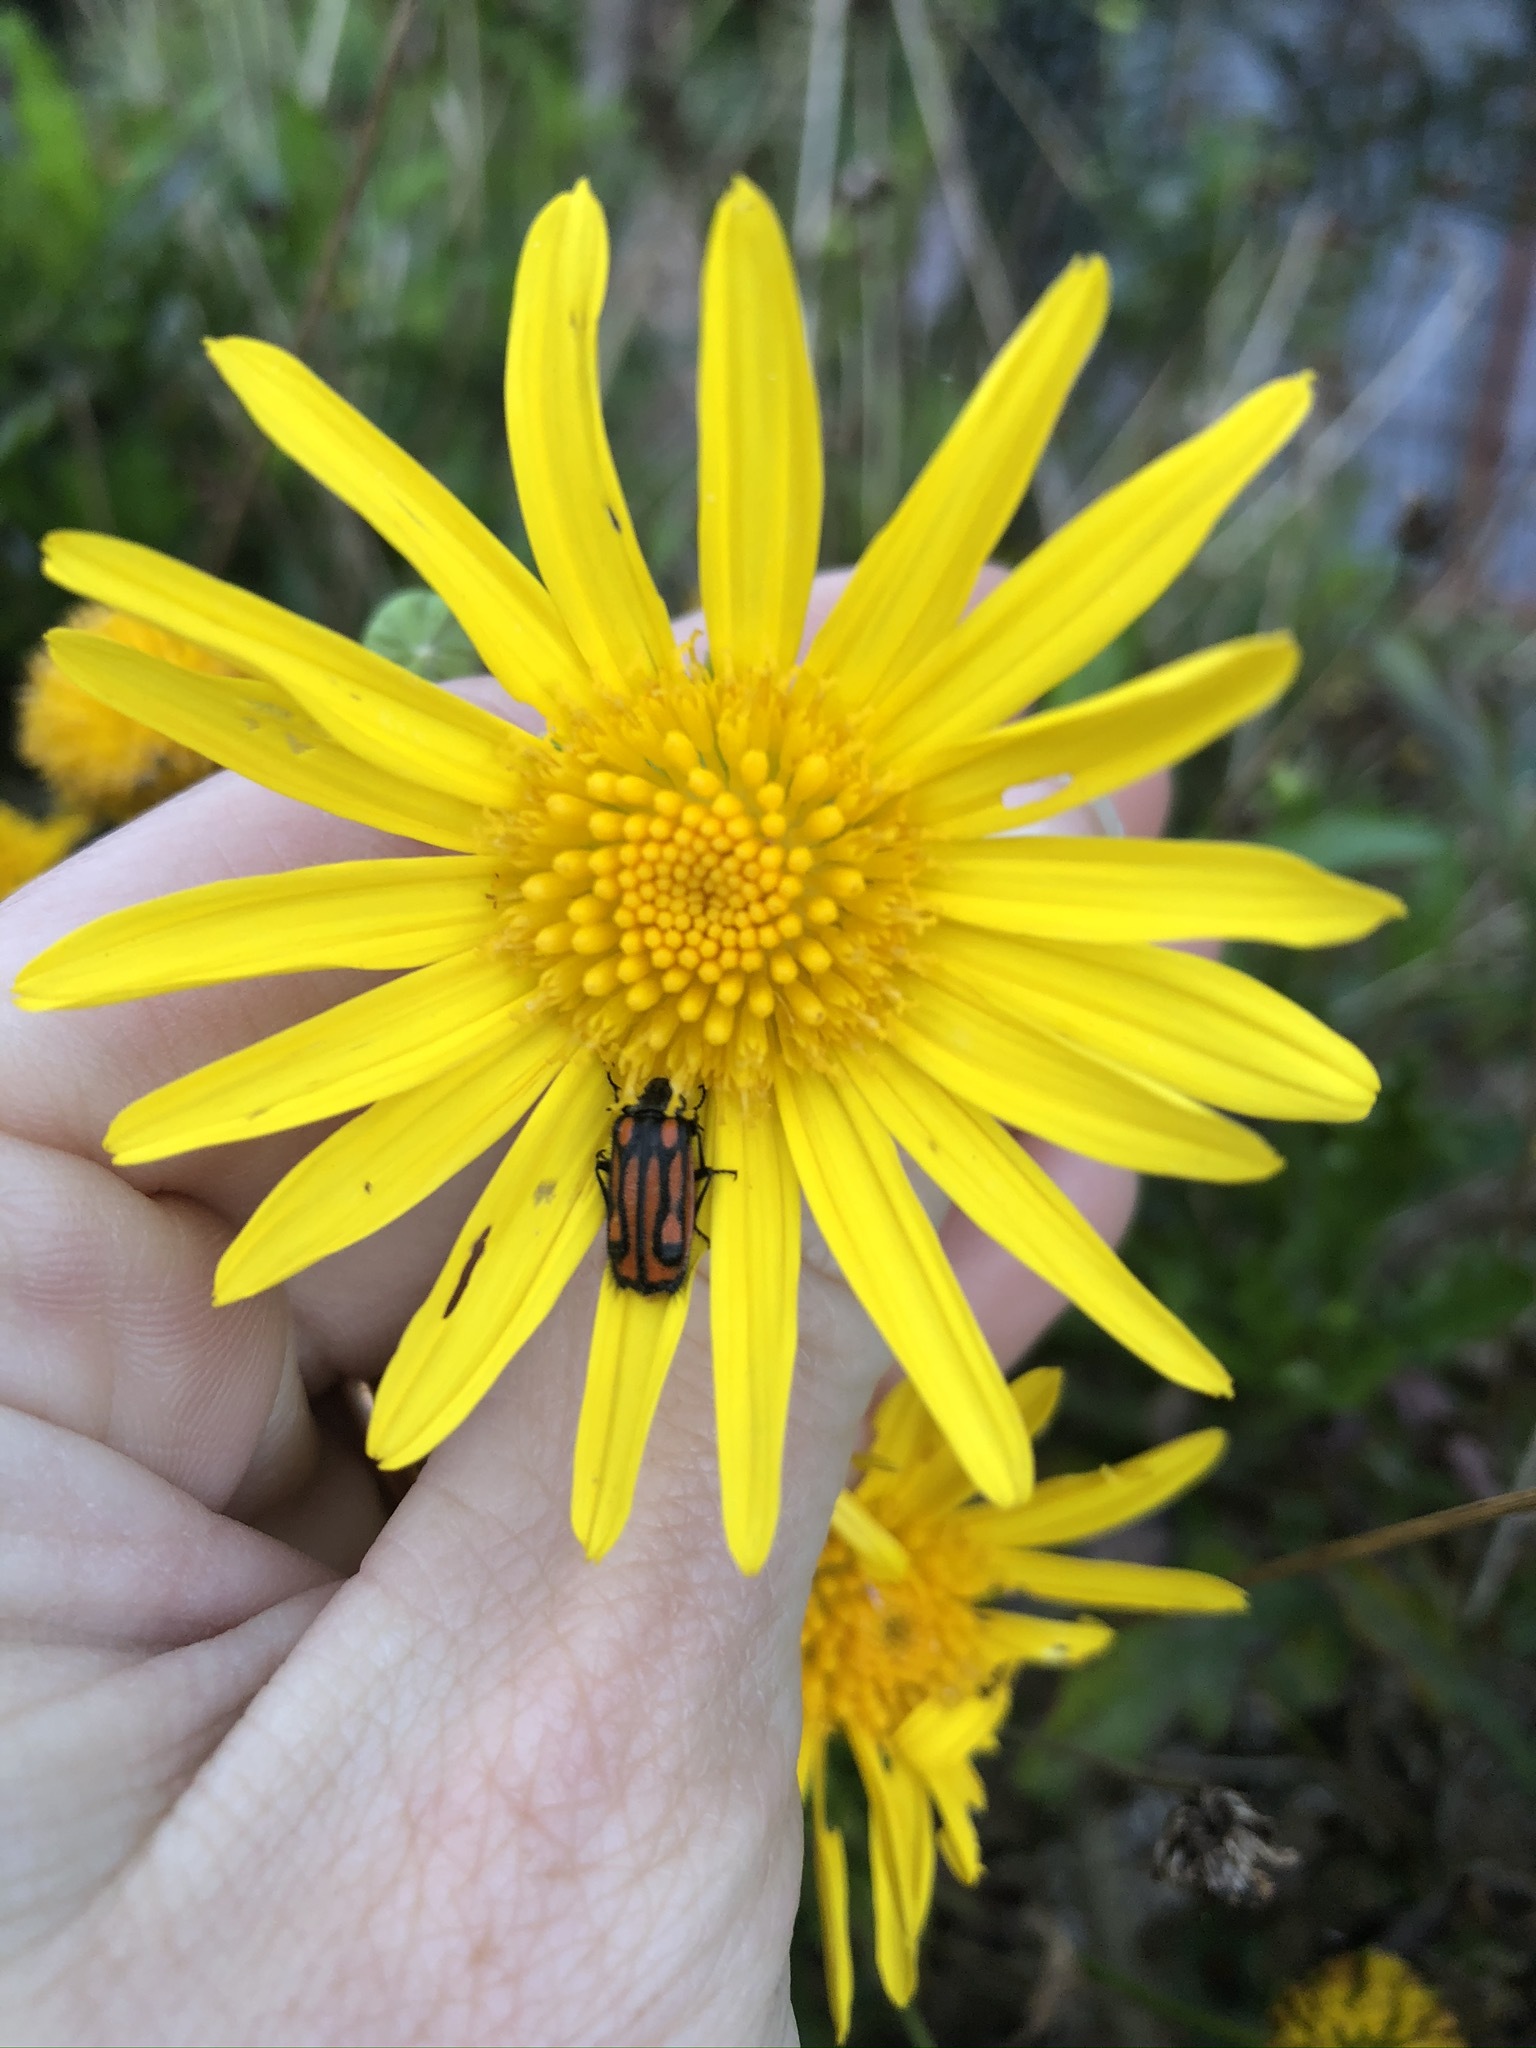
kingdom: Animalia
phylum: Arthropoda
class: Insecta
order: Coleoptera
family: Melyridae
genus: Astylus
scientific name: Astylus
